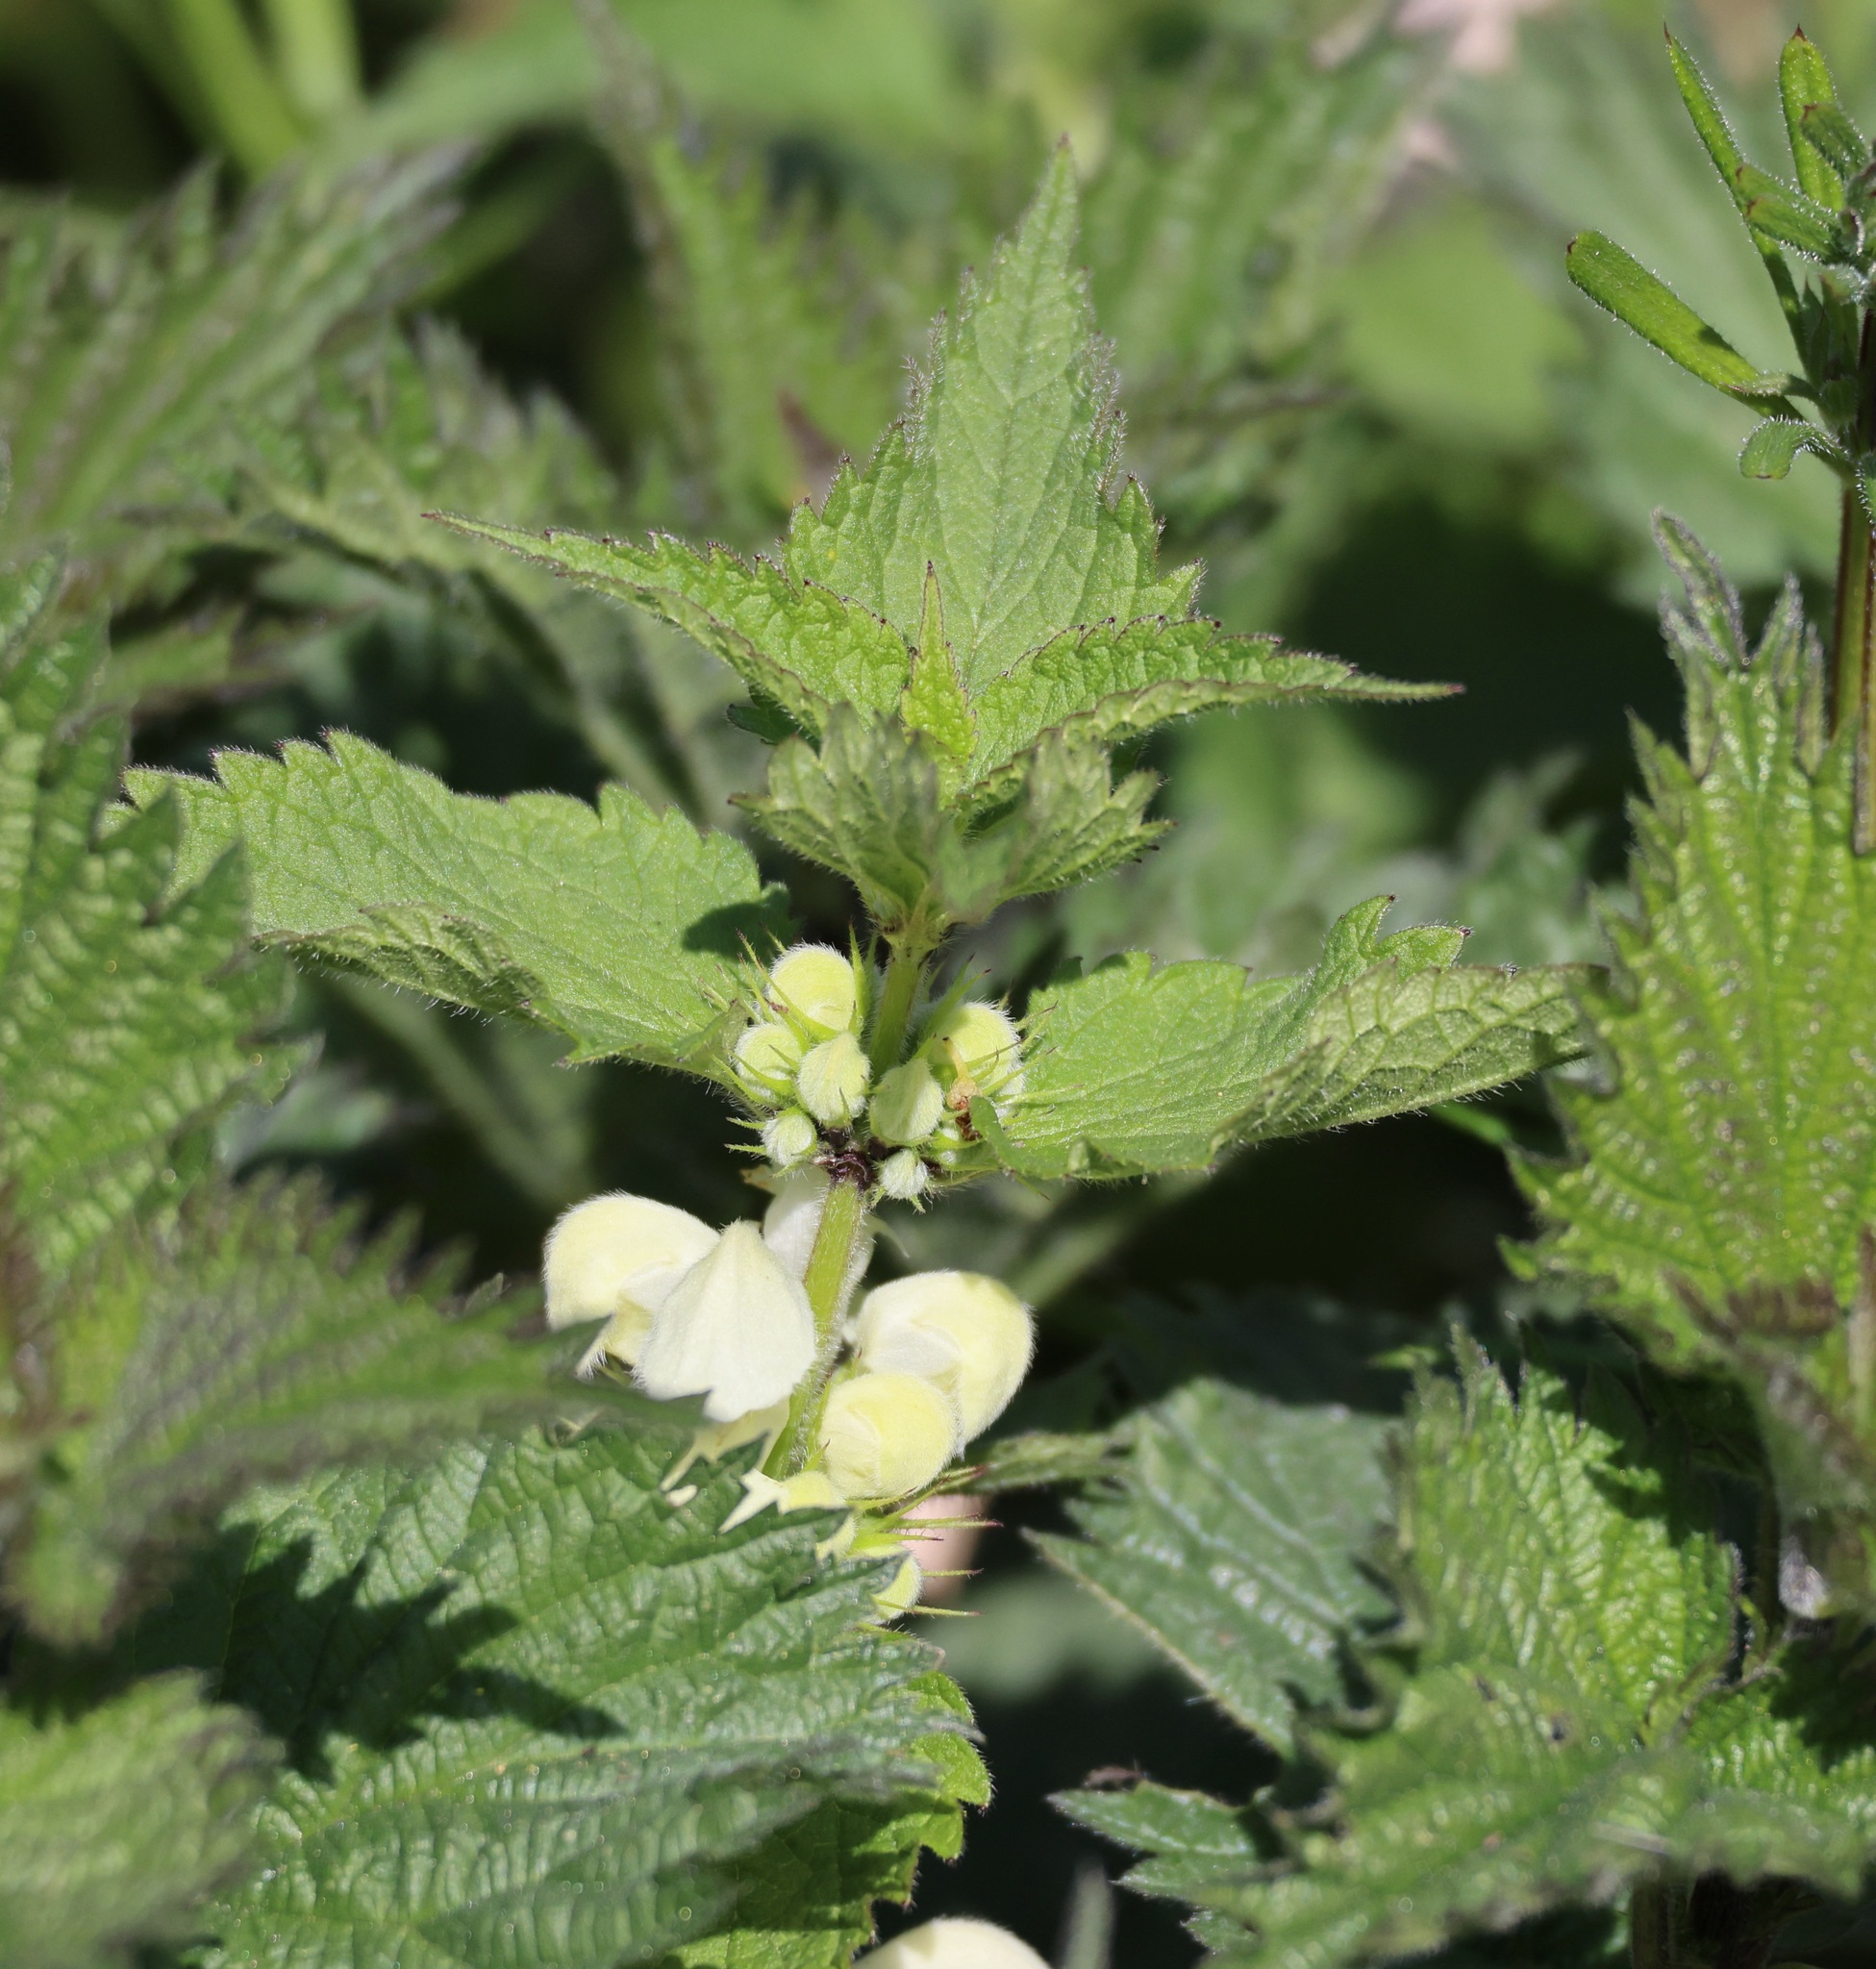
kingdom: Plantae
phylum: Tracheophyta
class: Magnoliopsida
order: Lamiales
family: Lamiaceae
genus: Lamium
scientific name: Lamium album
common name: White dead-nettle
